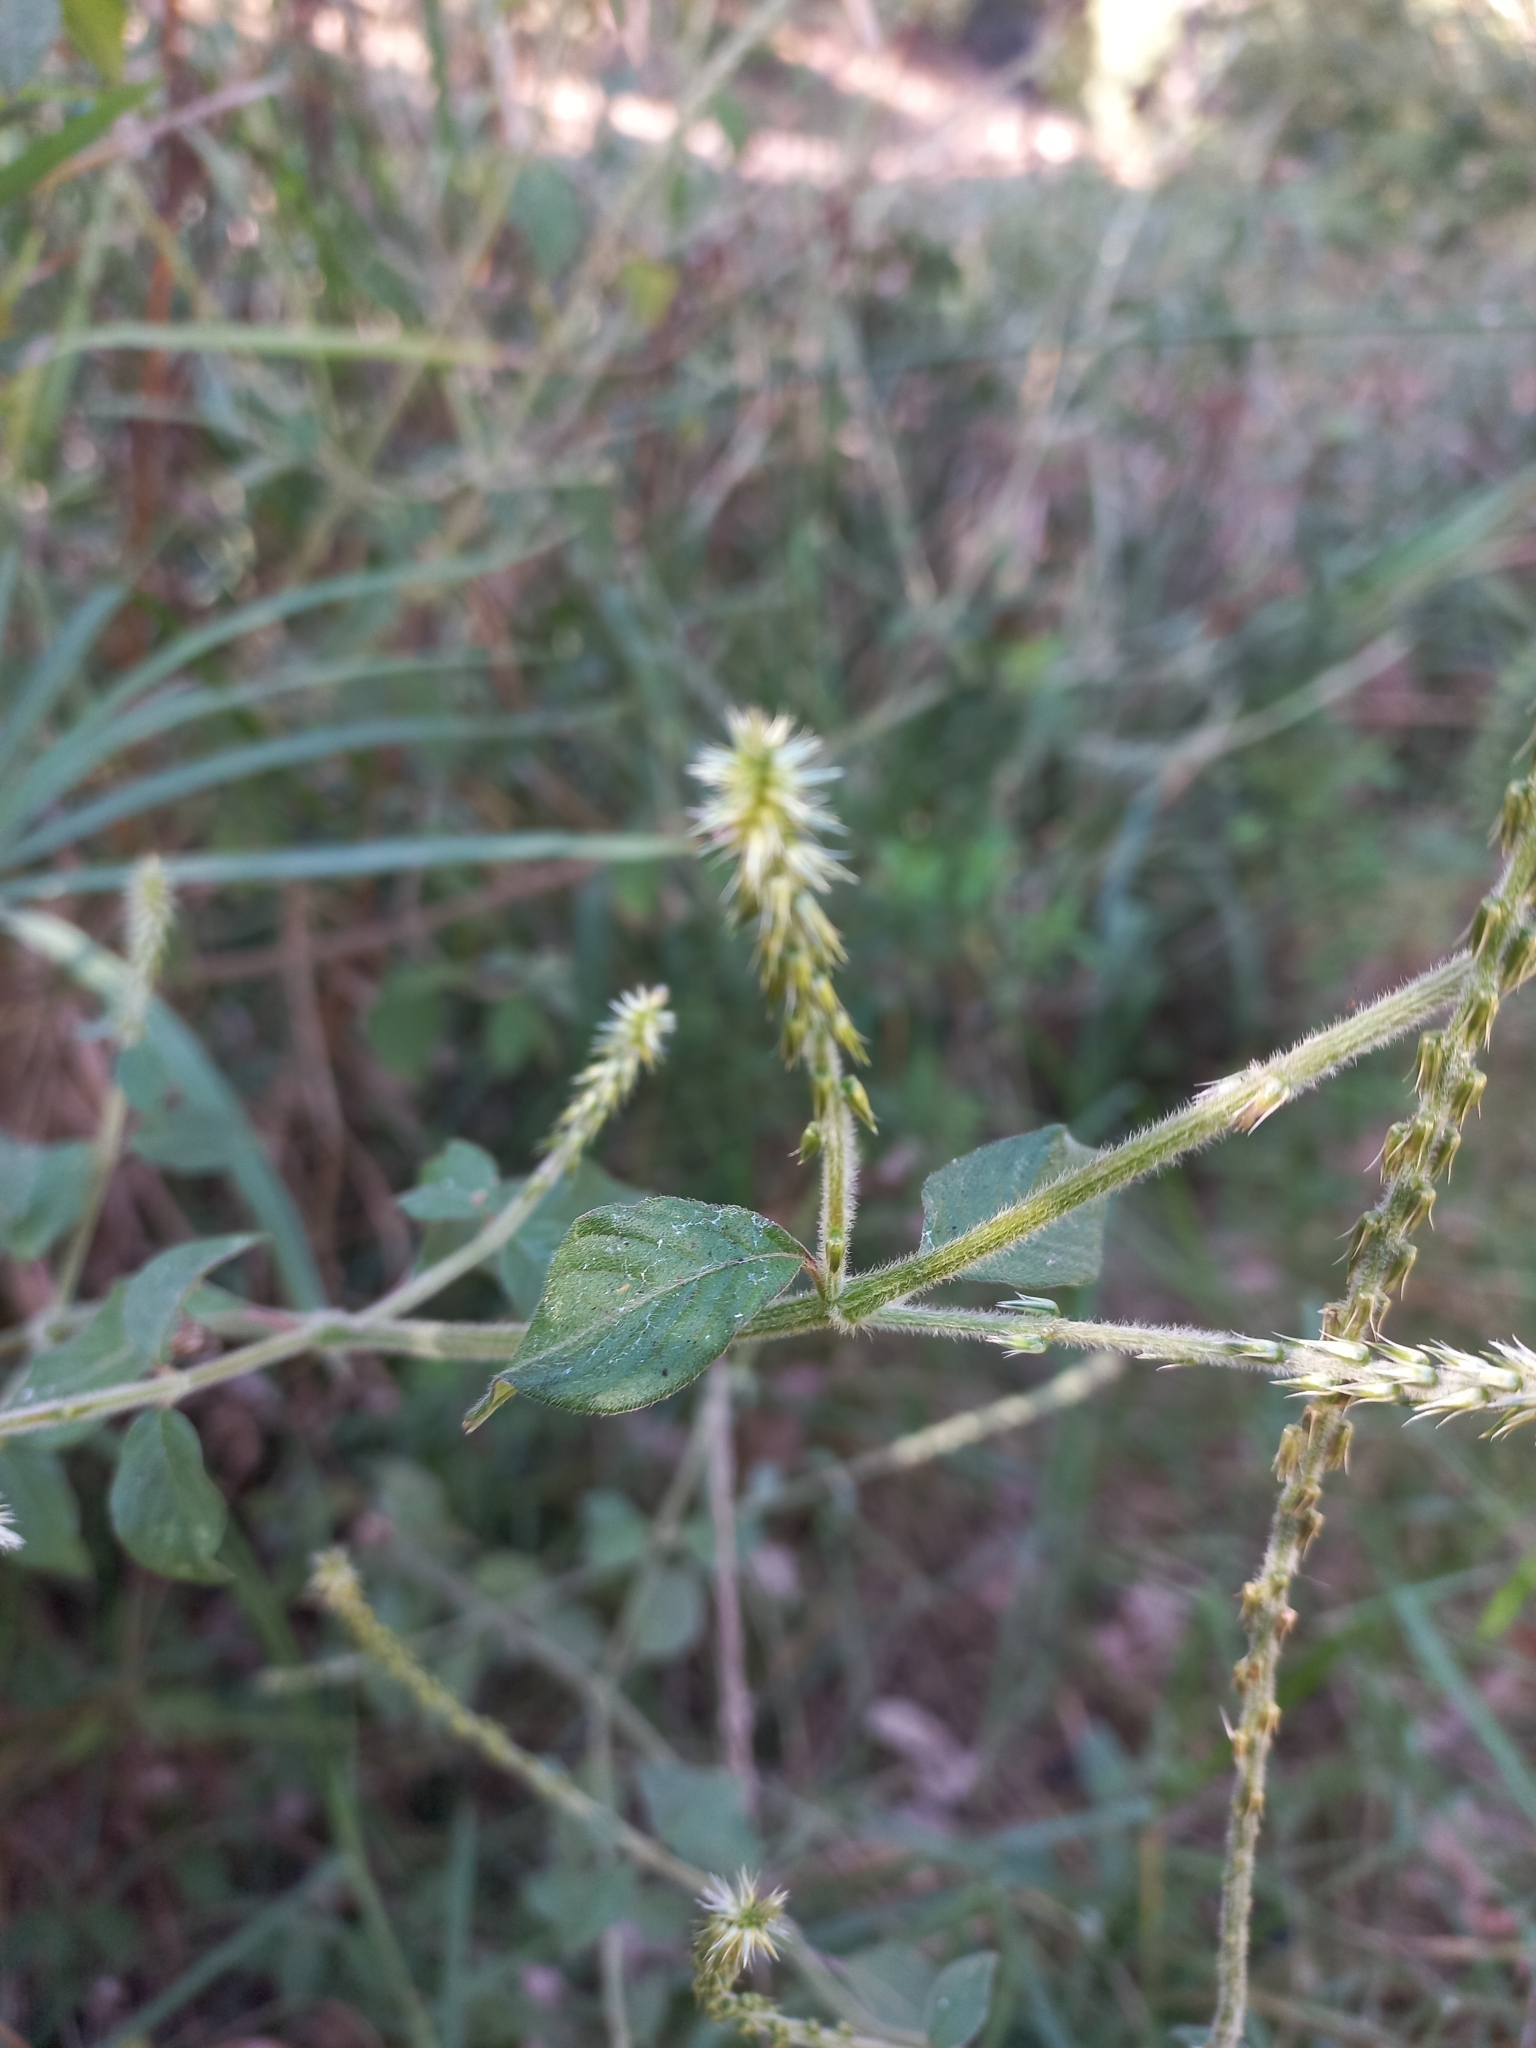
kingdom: Plantae
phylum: Tracheophyta
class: Magnoliopsida
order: Caryophyllales
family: Amaranthaceae
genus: Achyranthes
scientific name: Achyranthes aspera
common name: Devil's horsewhip
